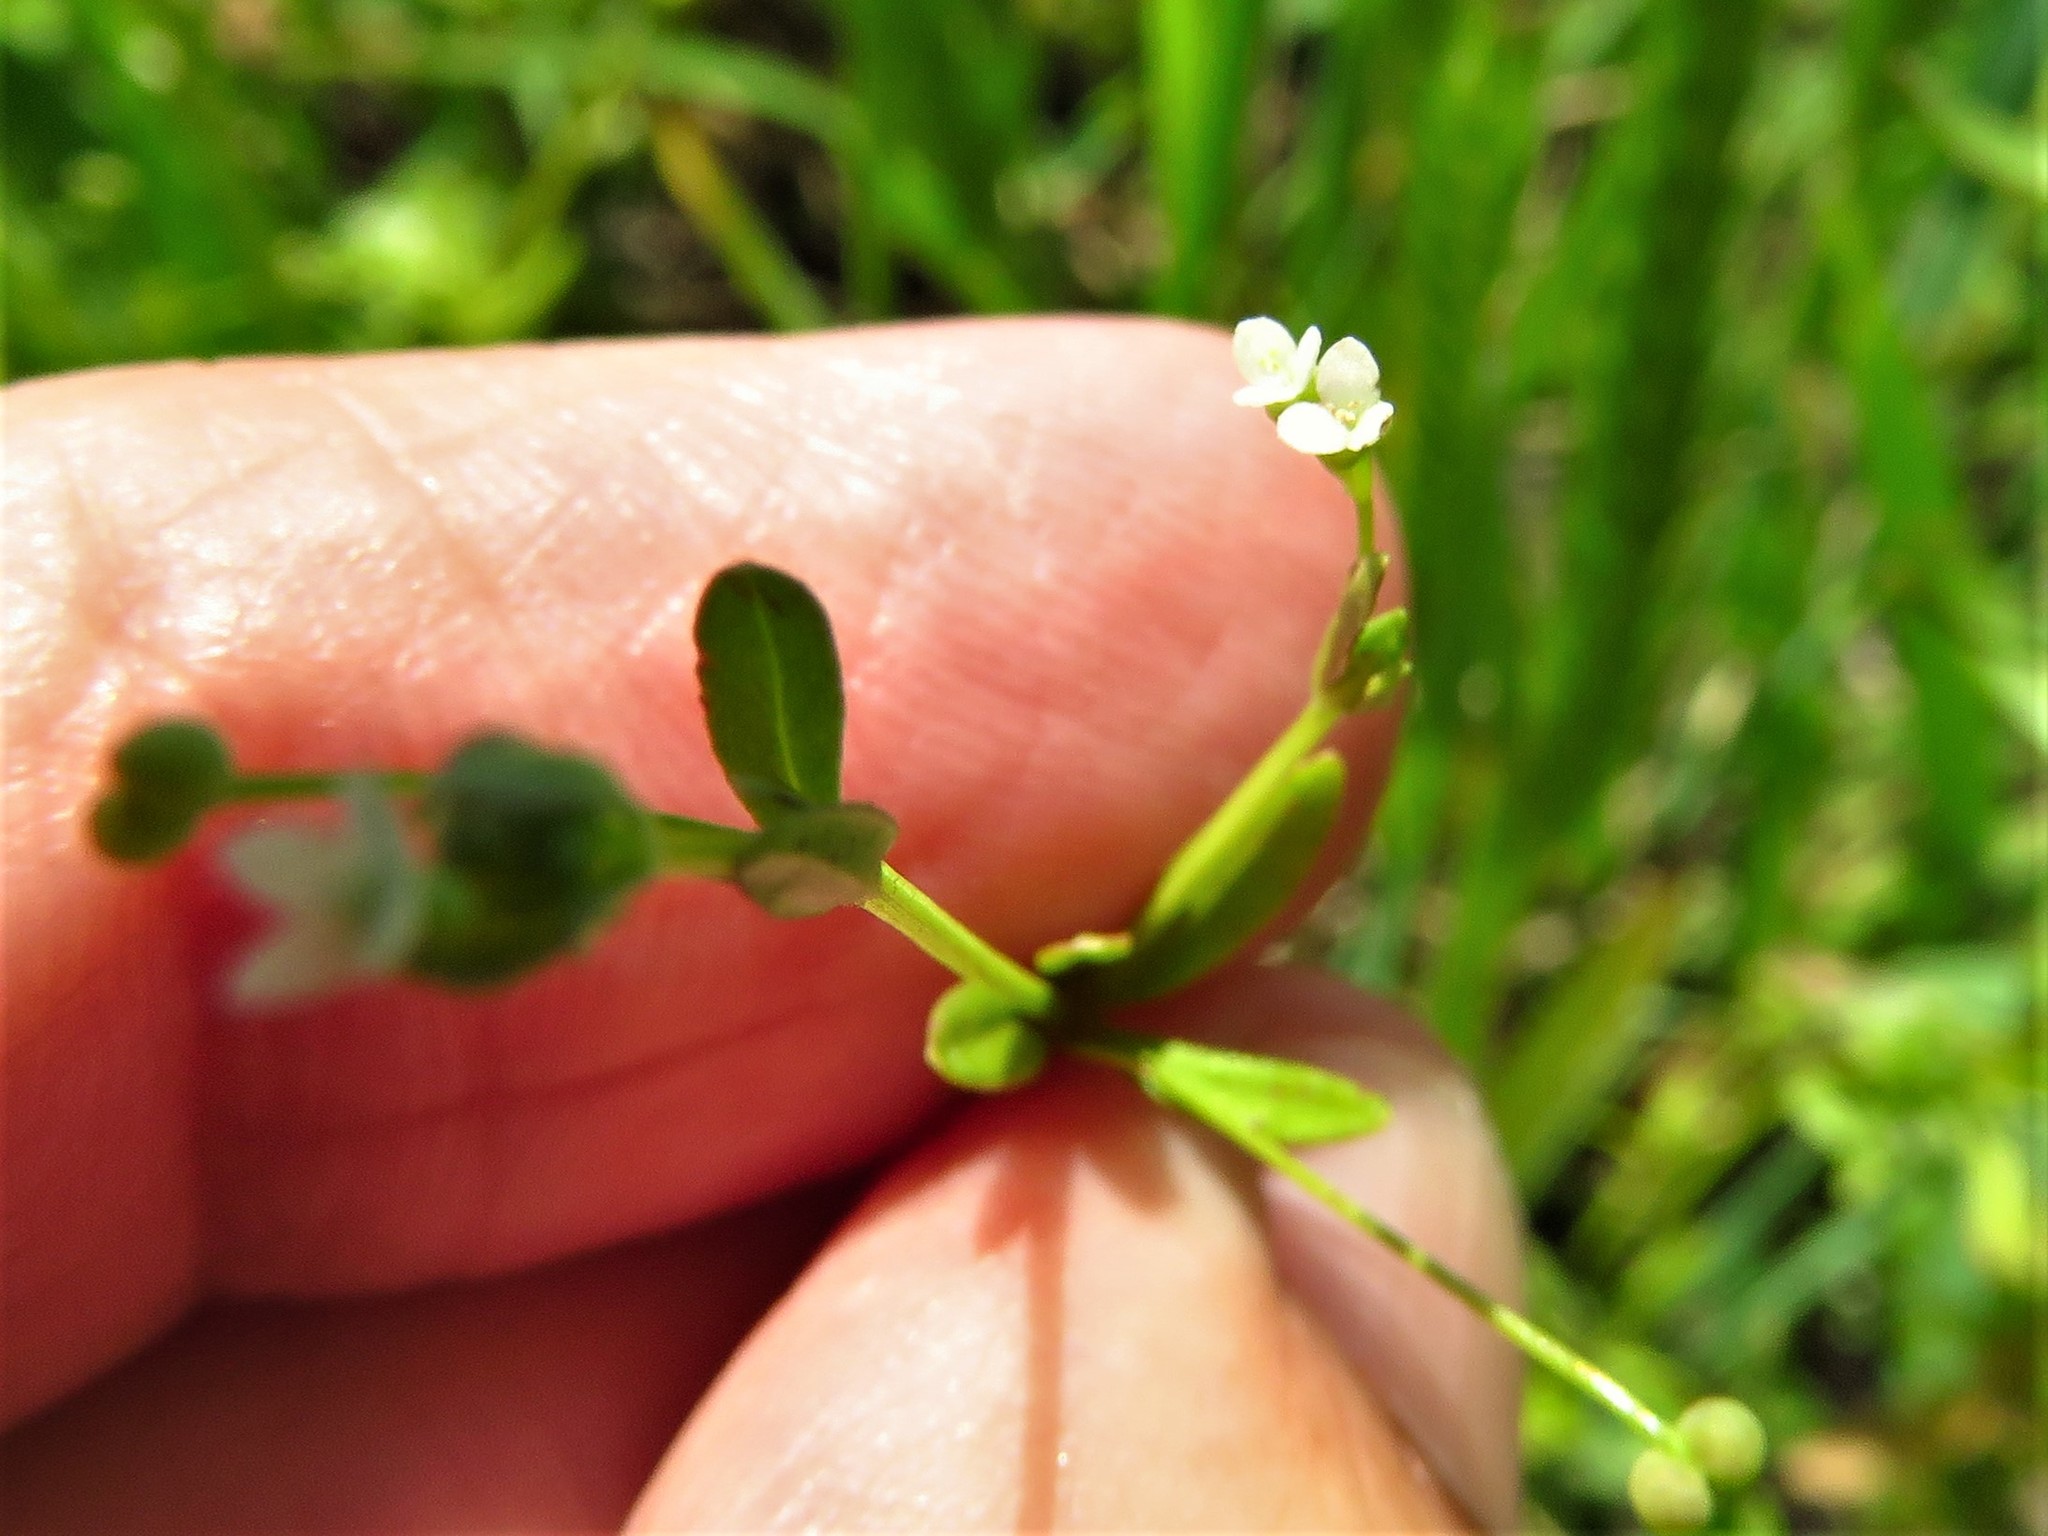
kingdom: Plantae
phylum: Tracheophyta
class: Magnoliopsida
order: Gentianales
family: Rubiaceae
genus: Galium
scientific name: Galium tinctorium
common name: Bedstraw
